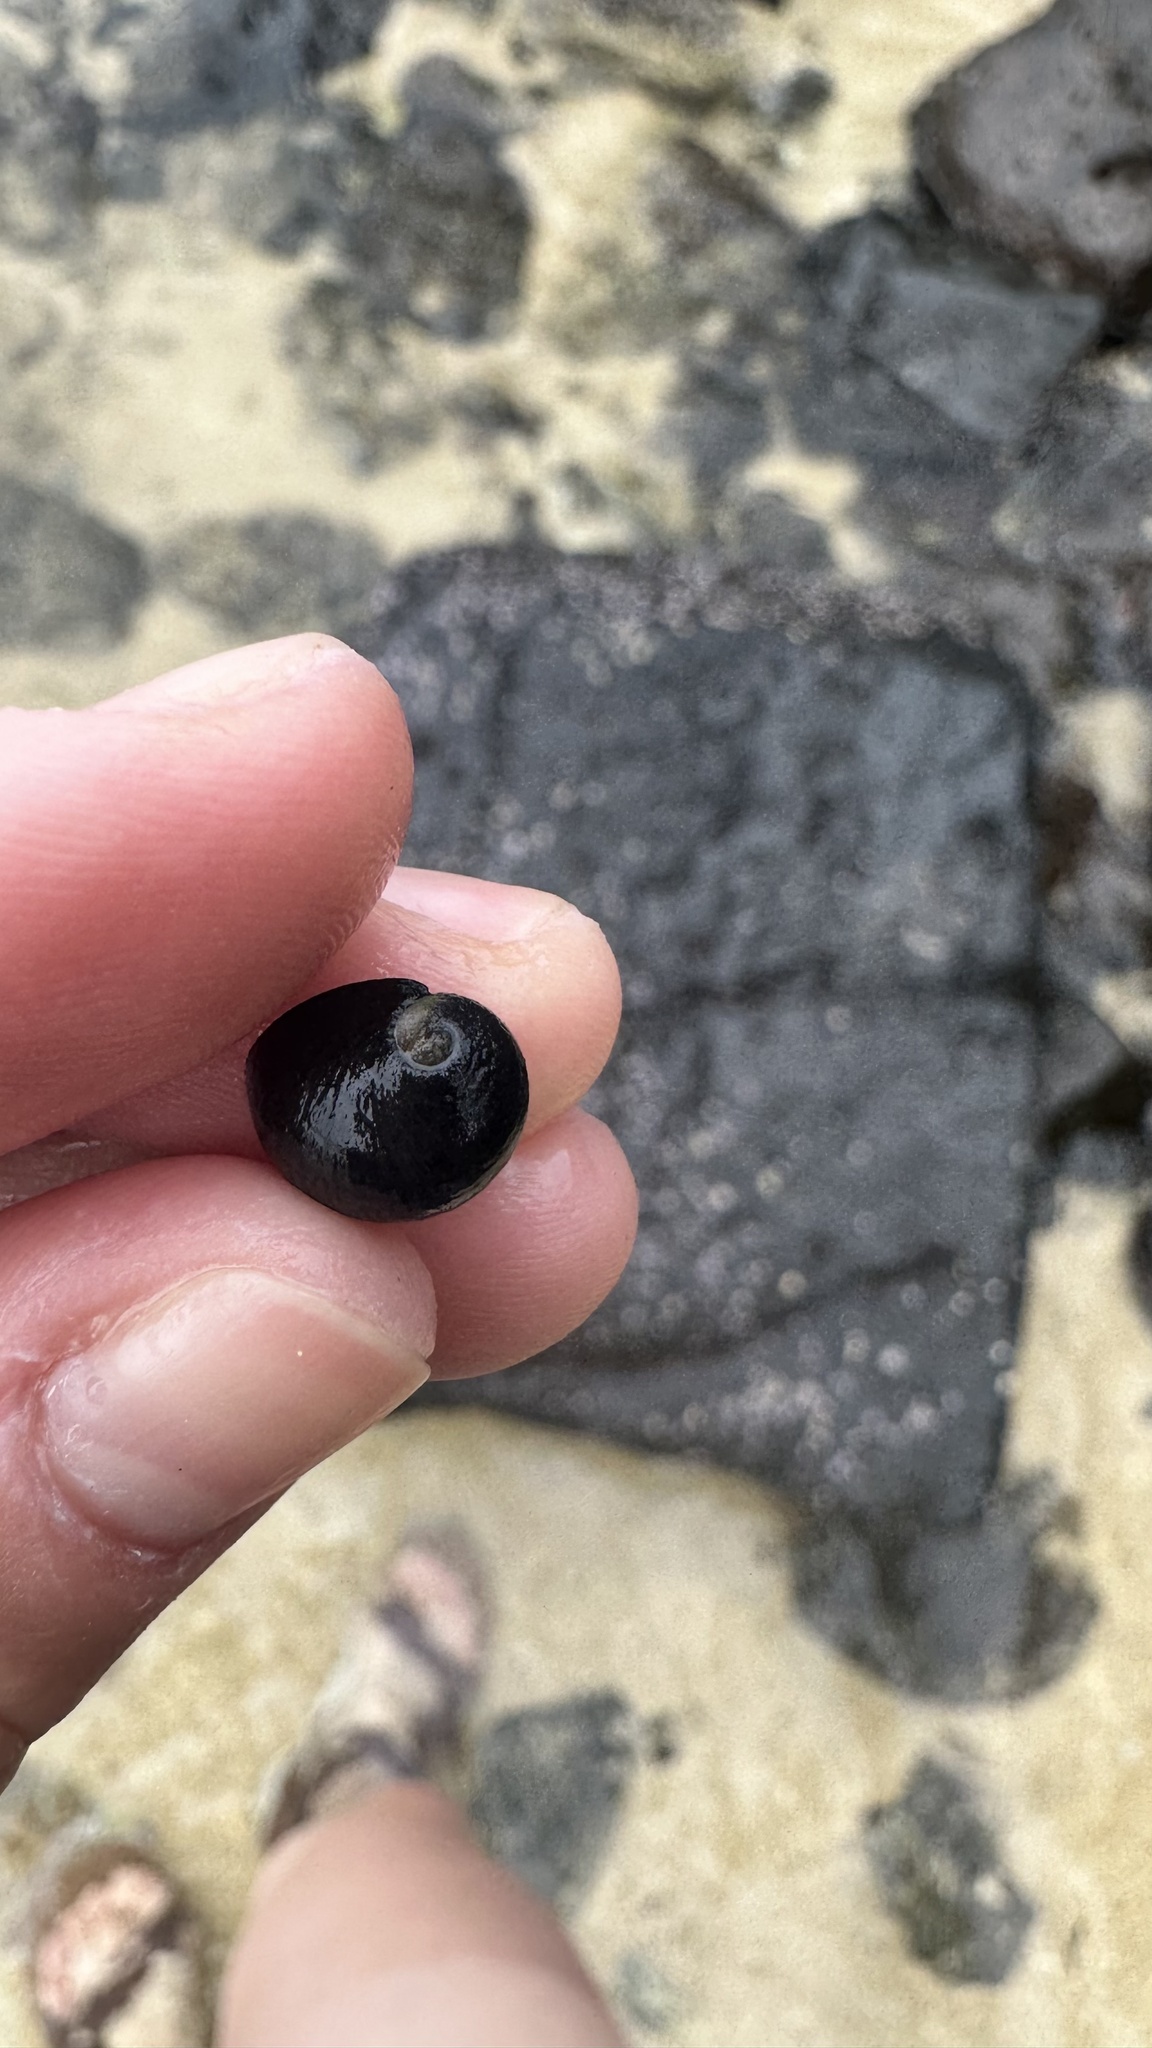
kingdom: Animalia
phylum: Mollusca
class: Gastropoda
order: Cycloneritida
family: Neritidae
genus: Nerita
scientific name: Nerita picea
